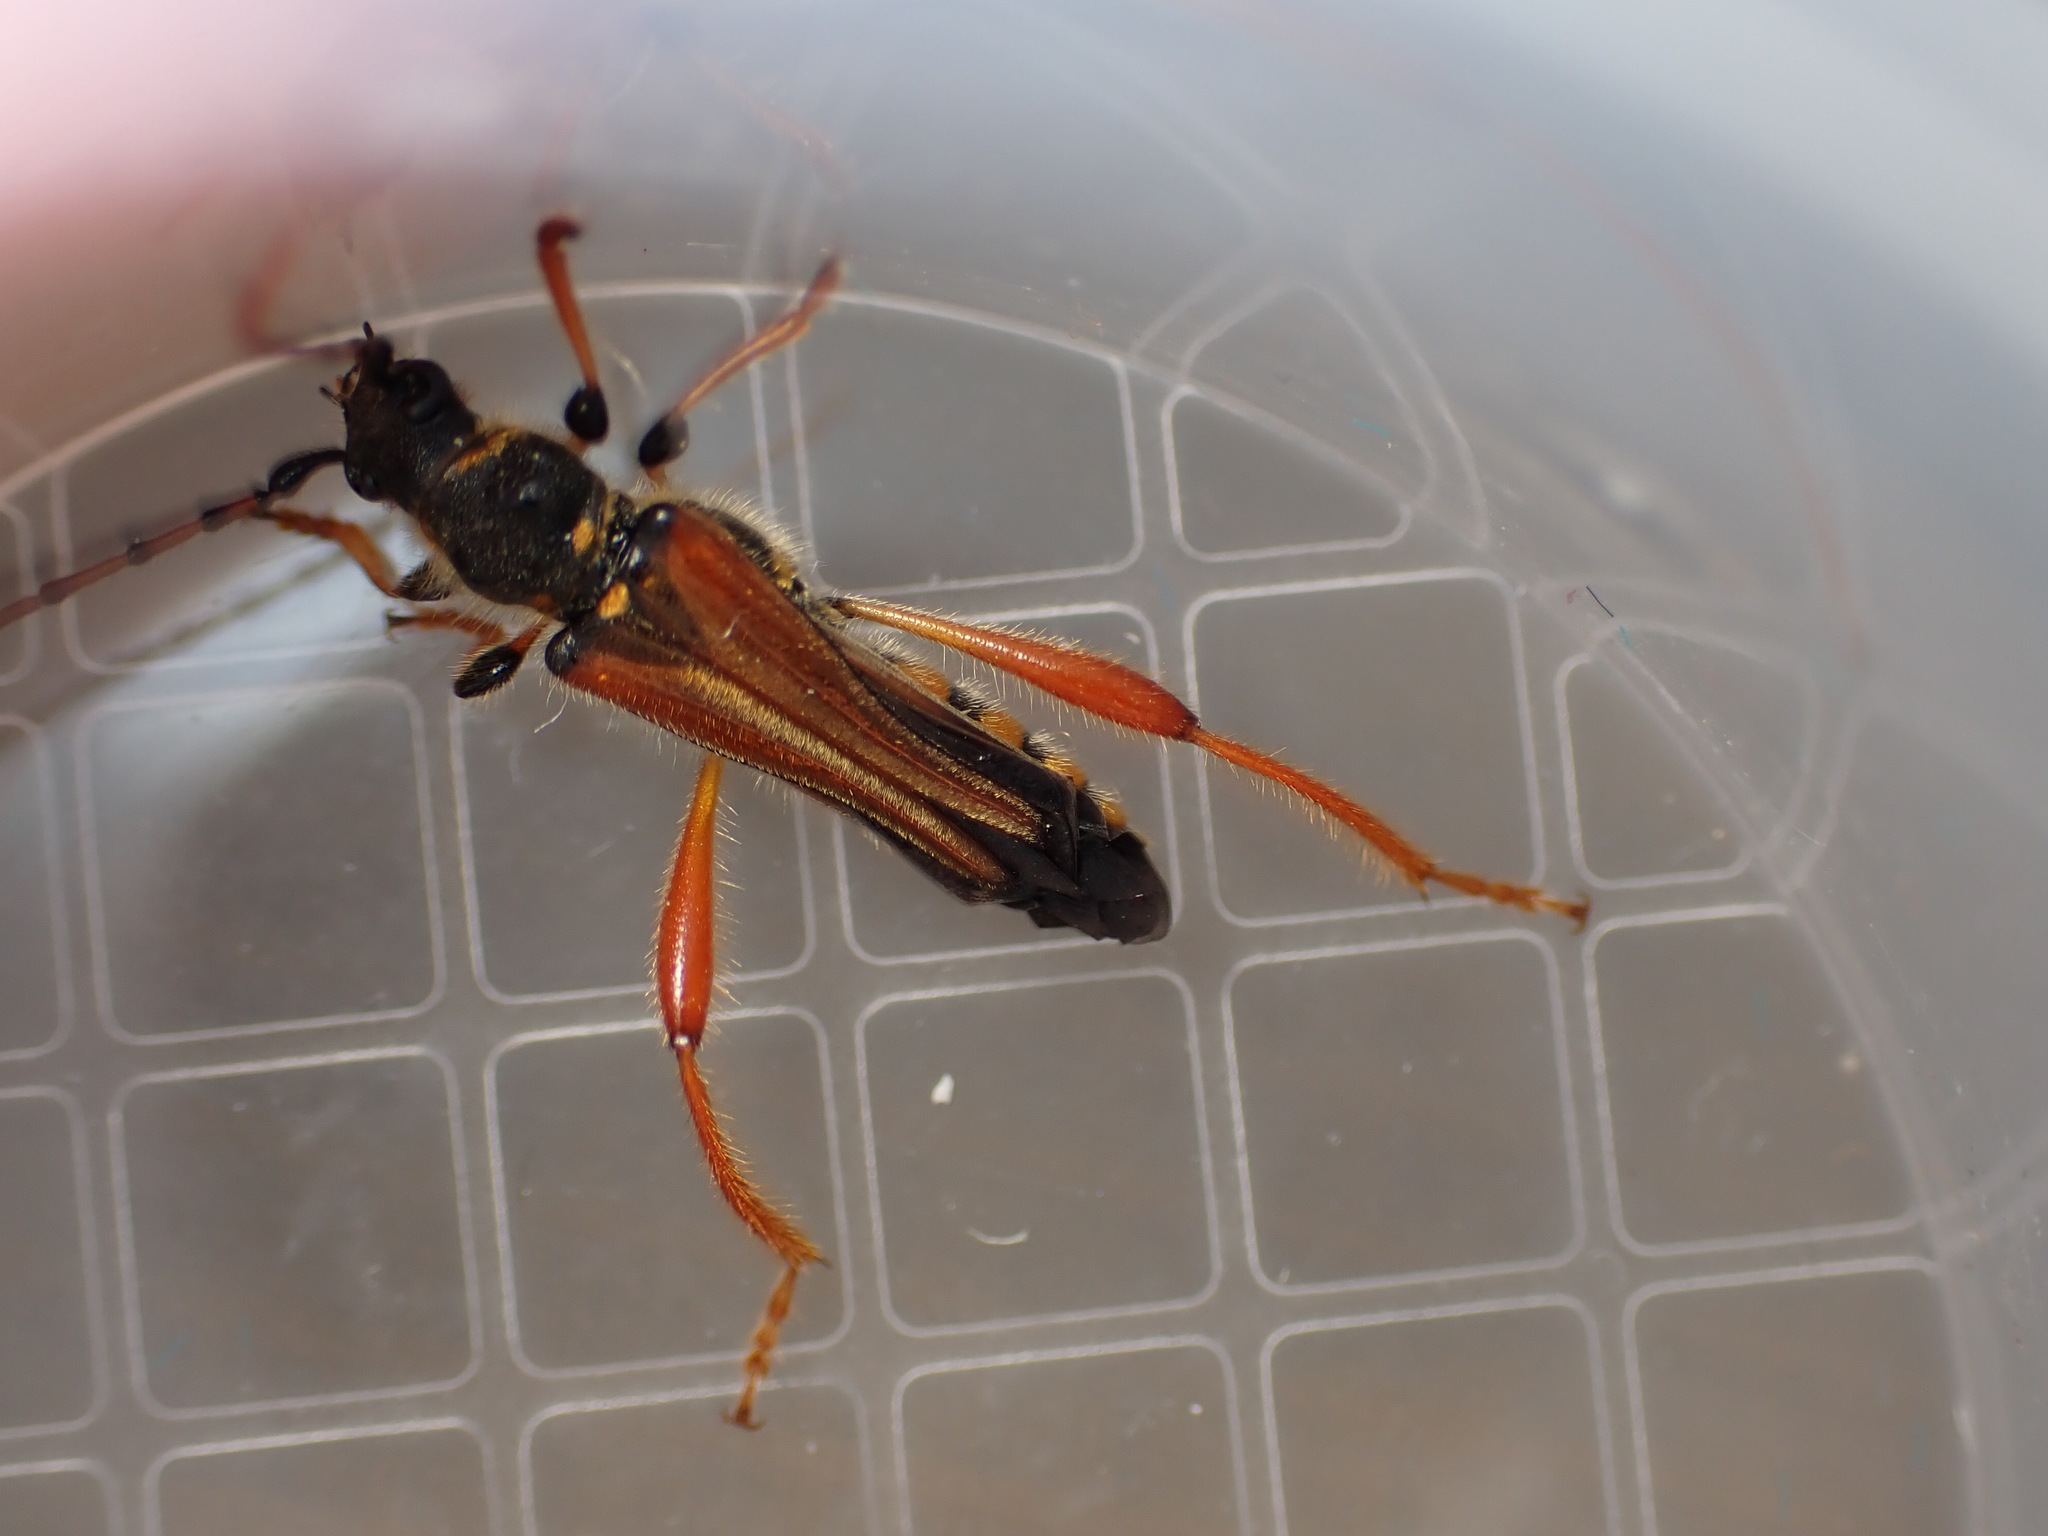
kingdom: Animalia
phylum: Arthropoda
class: Insecta
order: Coleoptera
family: Cerambycidae
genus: Stenopterus
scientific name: Stenopterus rufus
